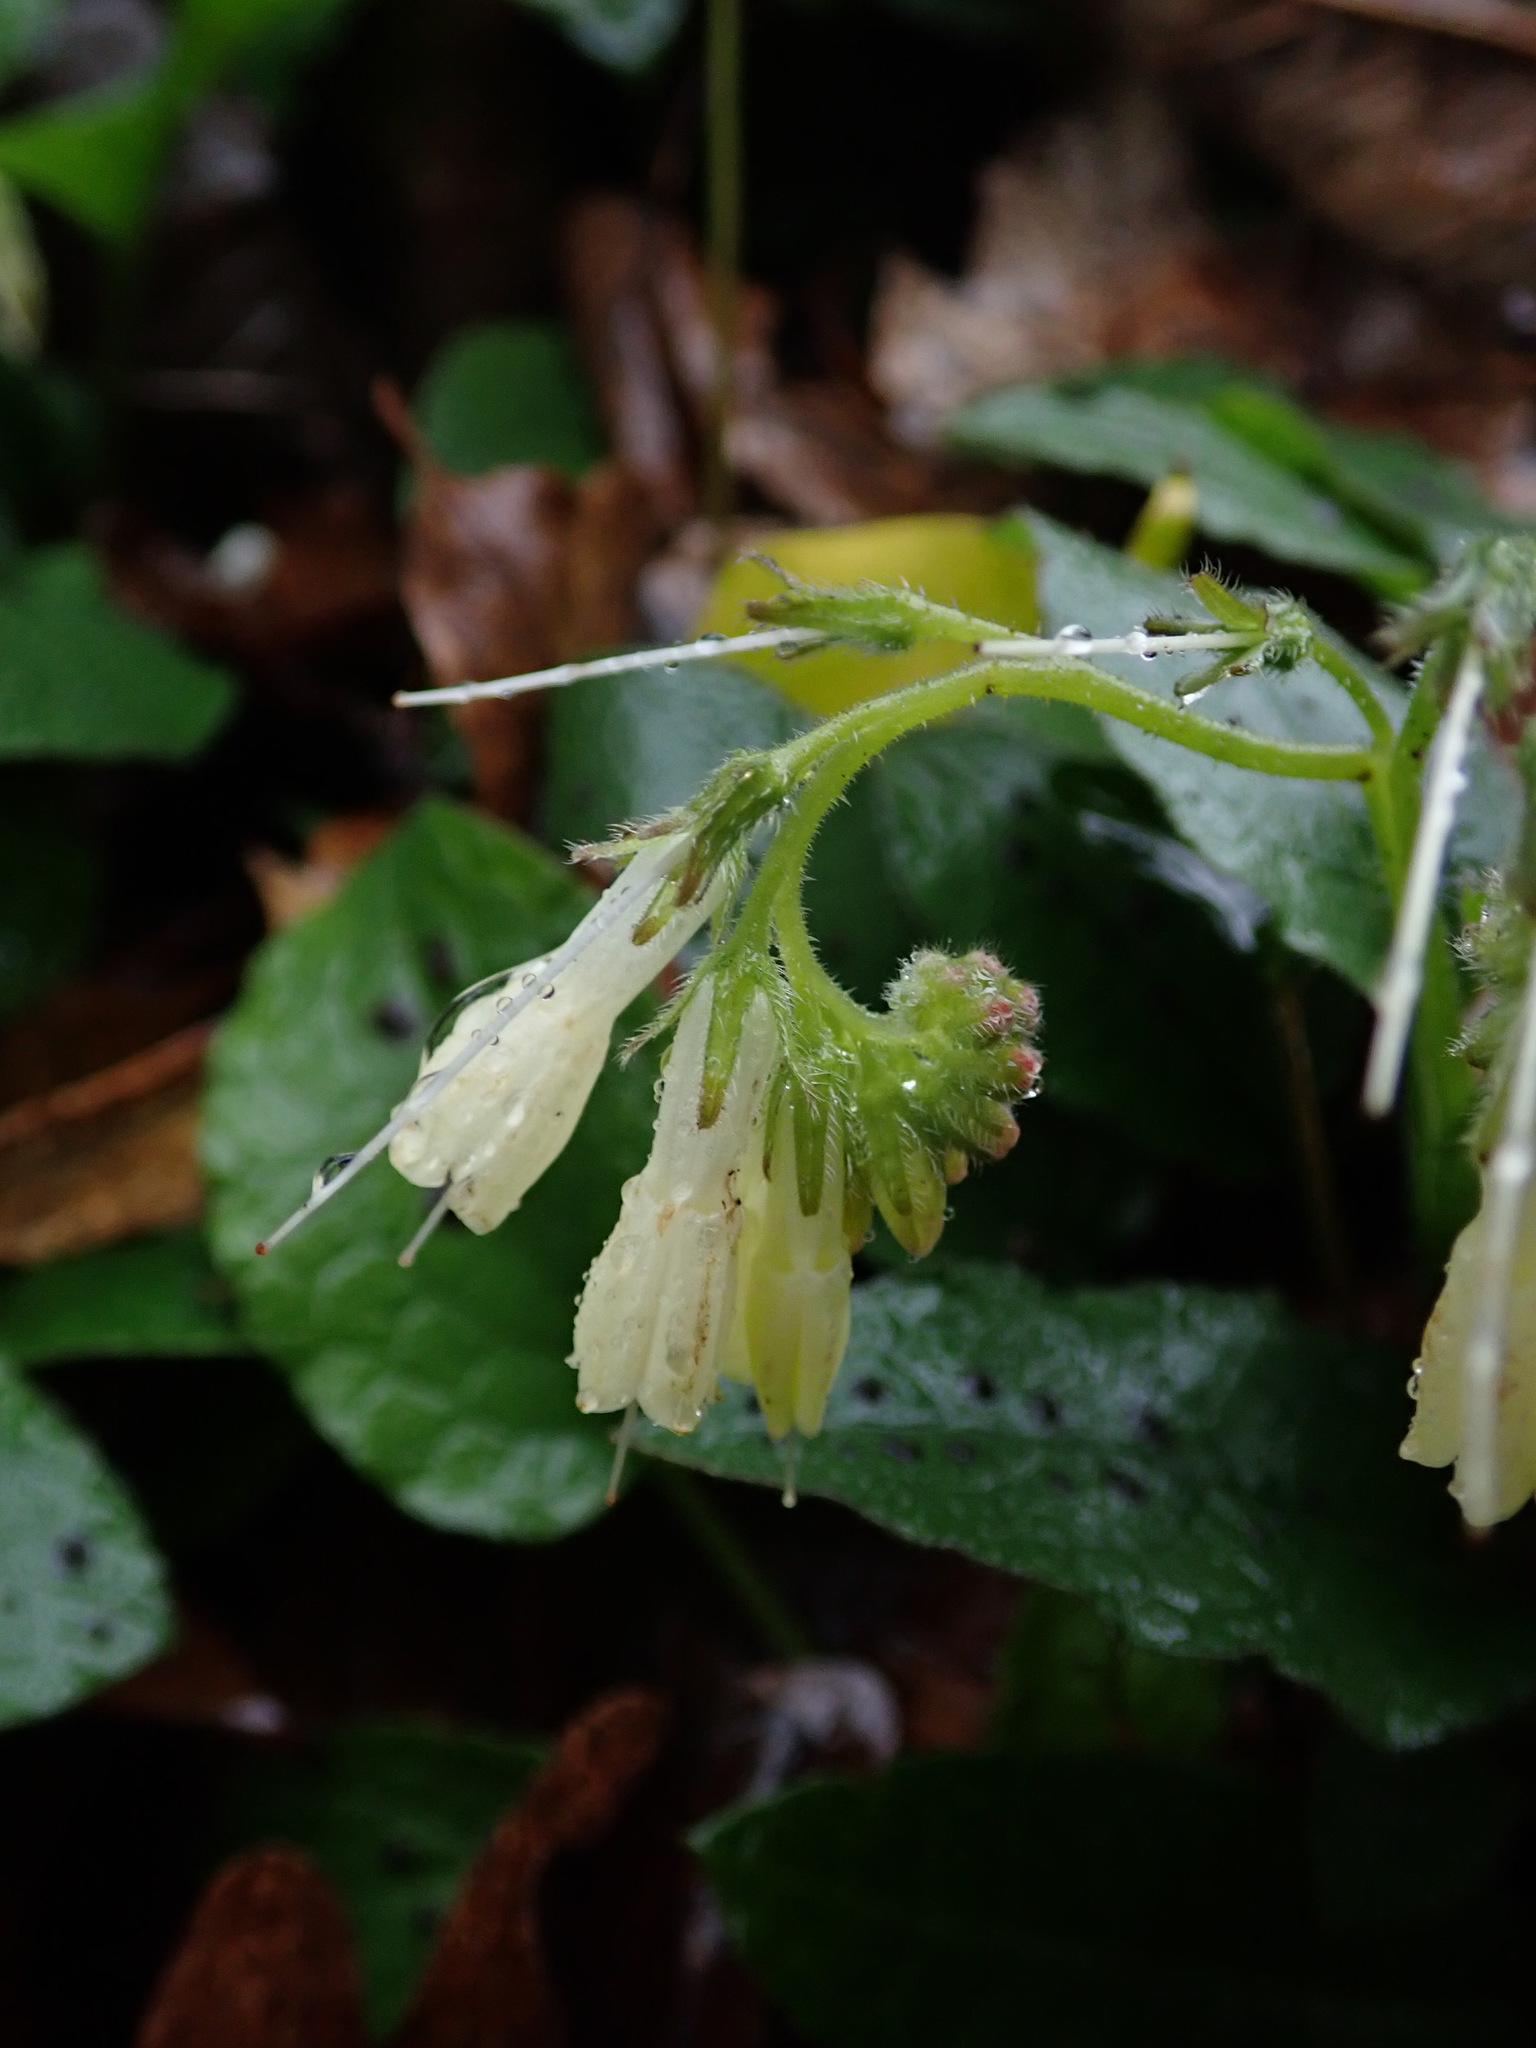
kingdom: Plantae
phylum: Tracheophyta
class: Magnoliopsida
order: Boraginales
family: Boraginaceae
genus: Symphytum
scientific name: Symphytum grandiflorum
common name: Creeping comfrey
